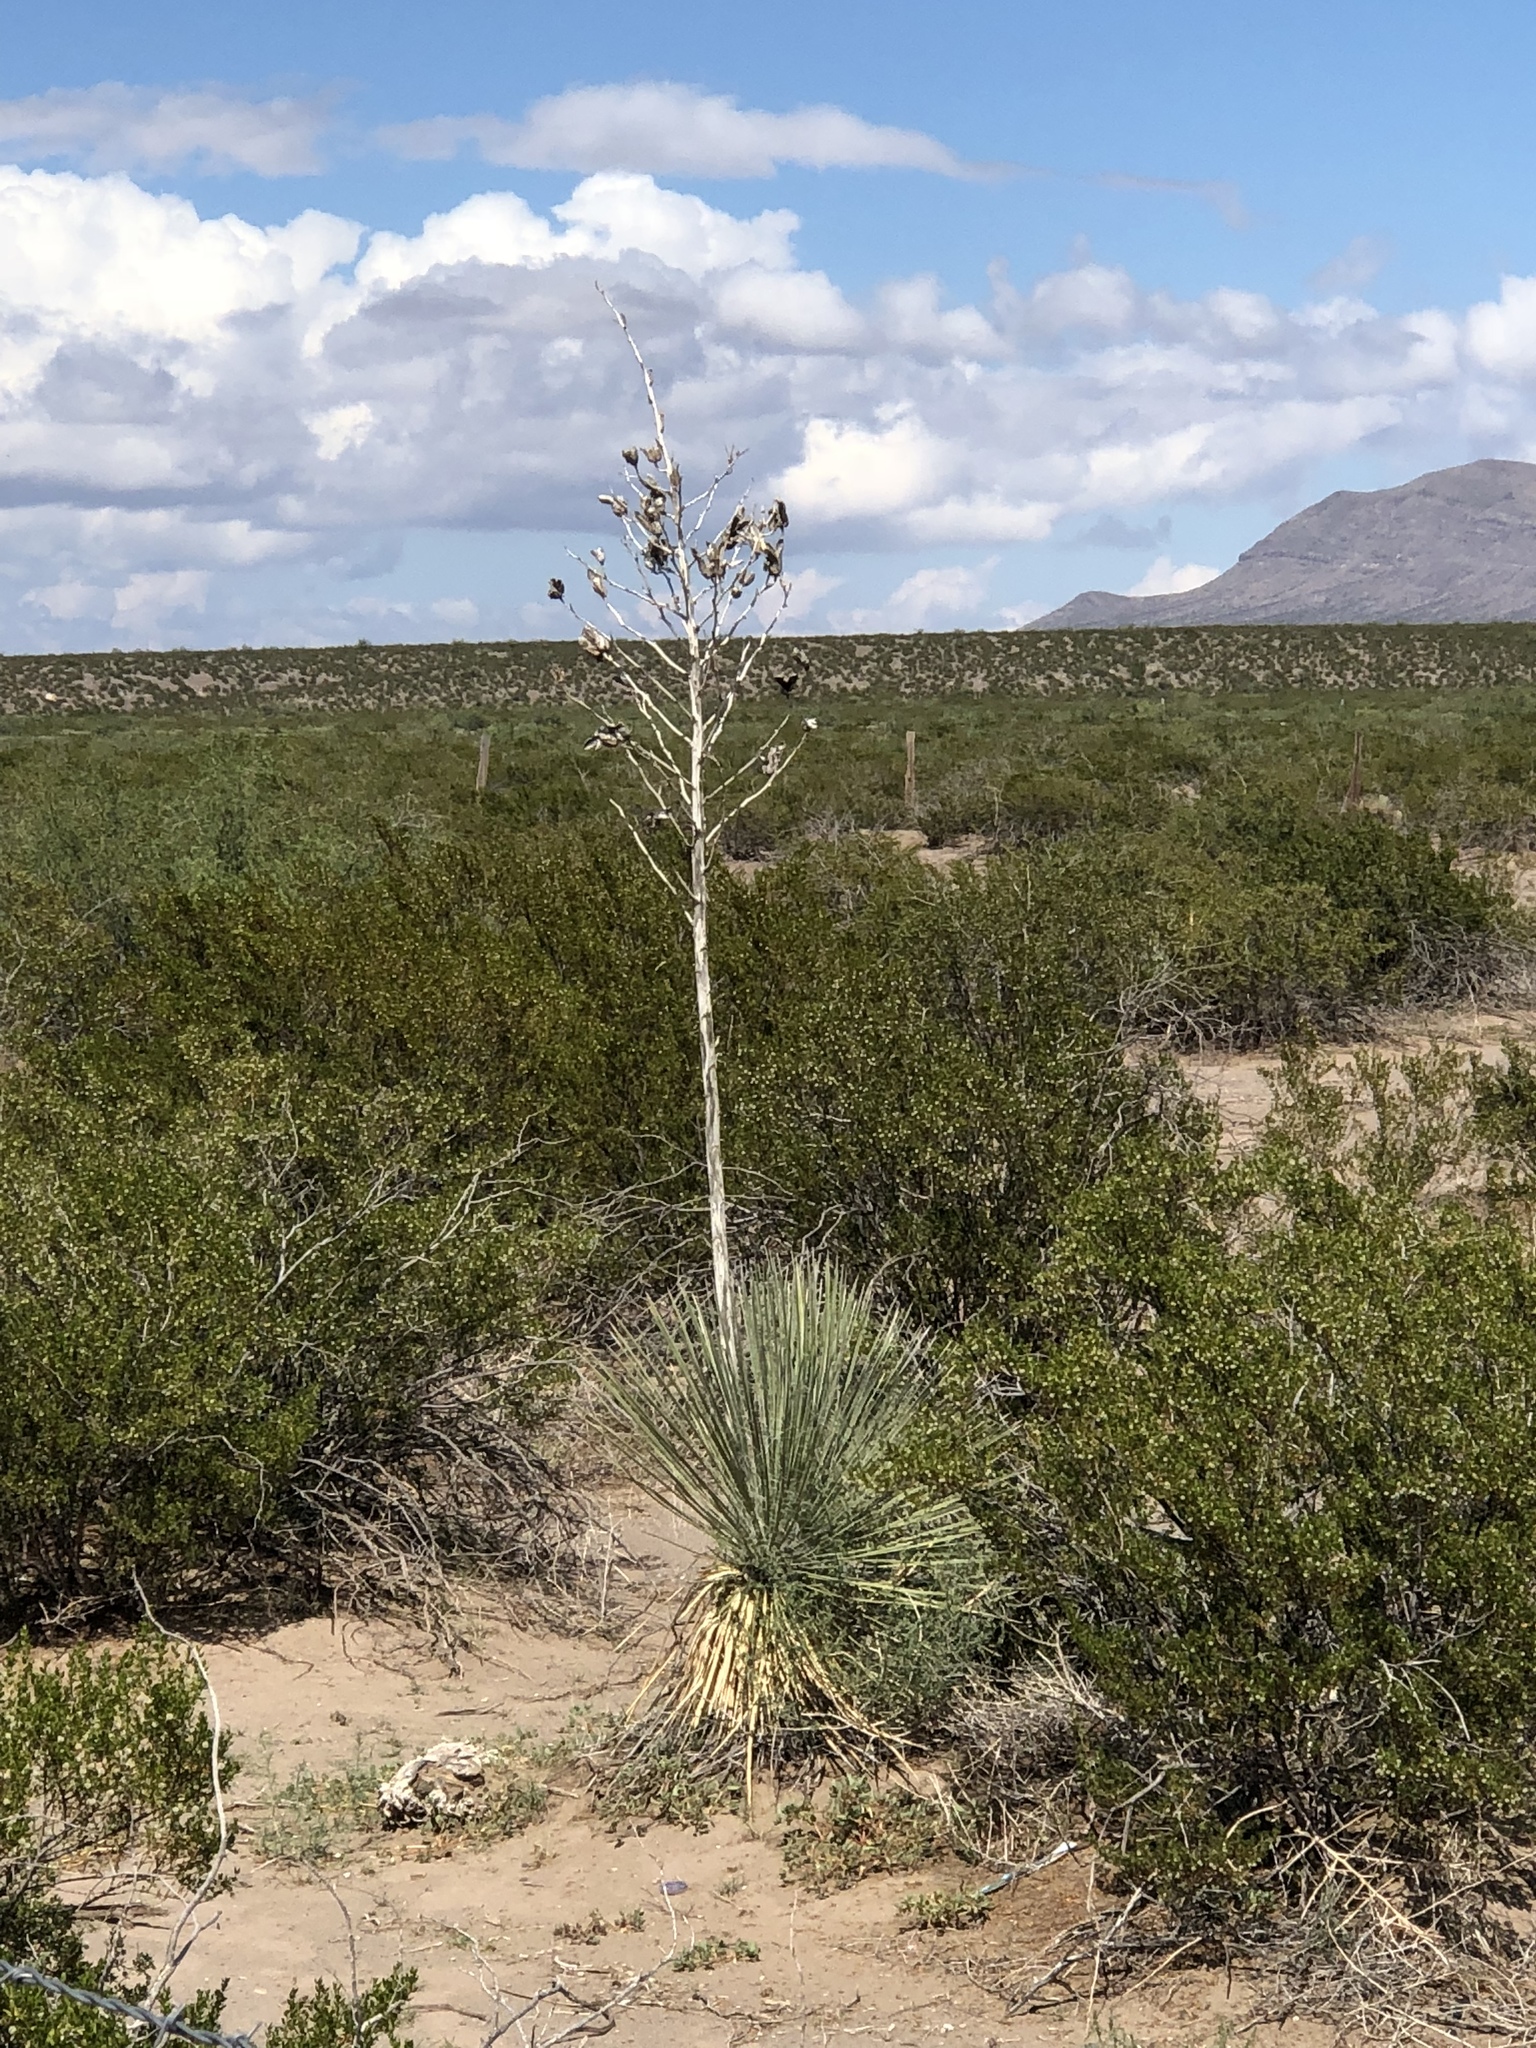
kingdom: Plantae
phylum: Tracheophyta
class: Liliopsida
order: Asparagales
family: Asparagaceae
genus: Yucca
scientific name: Yucca elata
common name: Palmella
